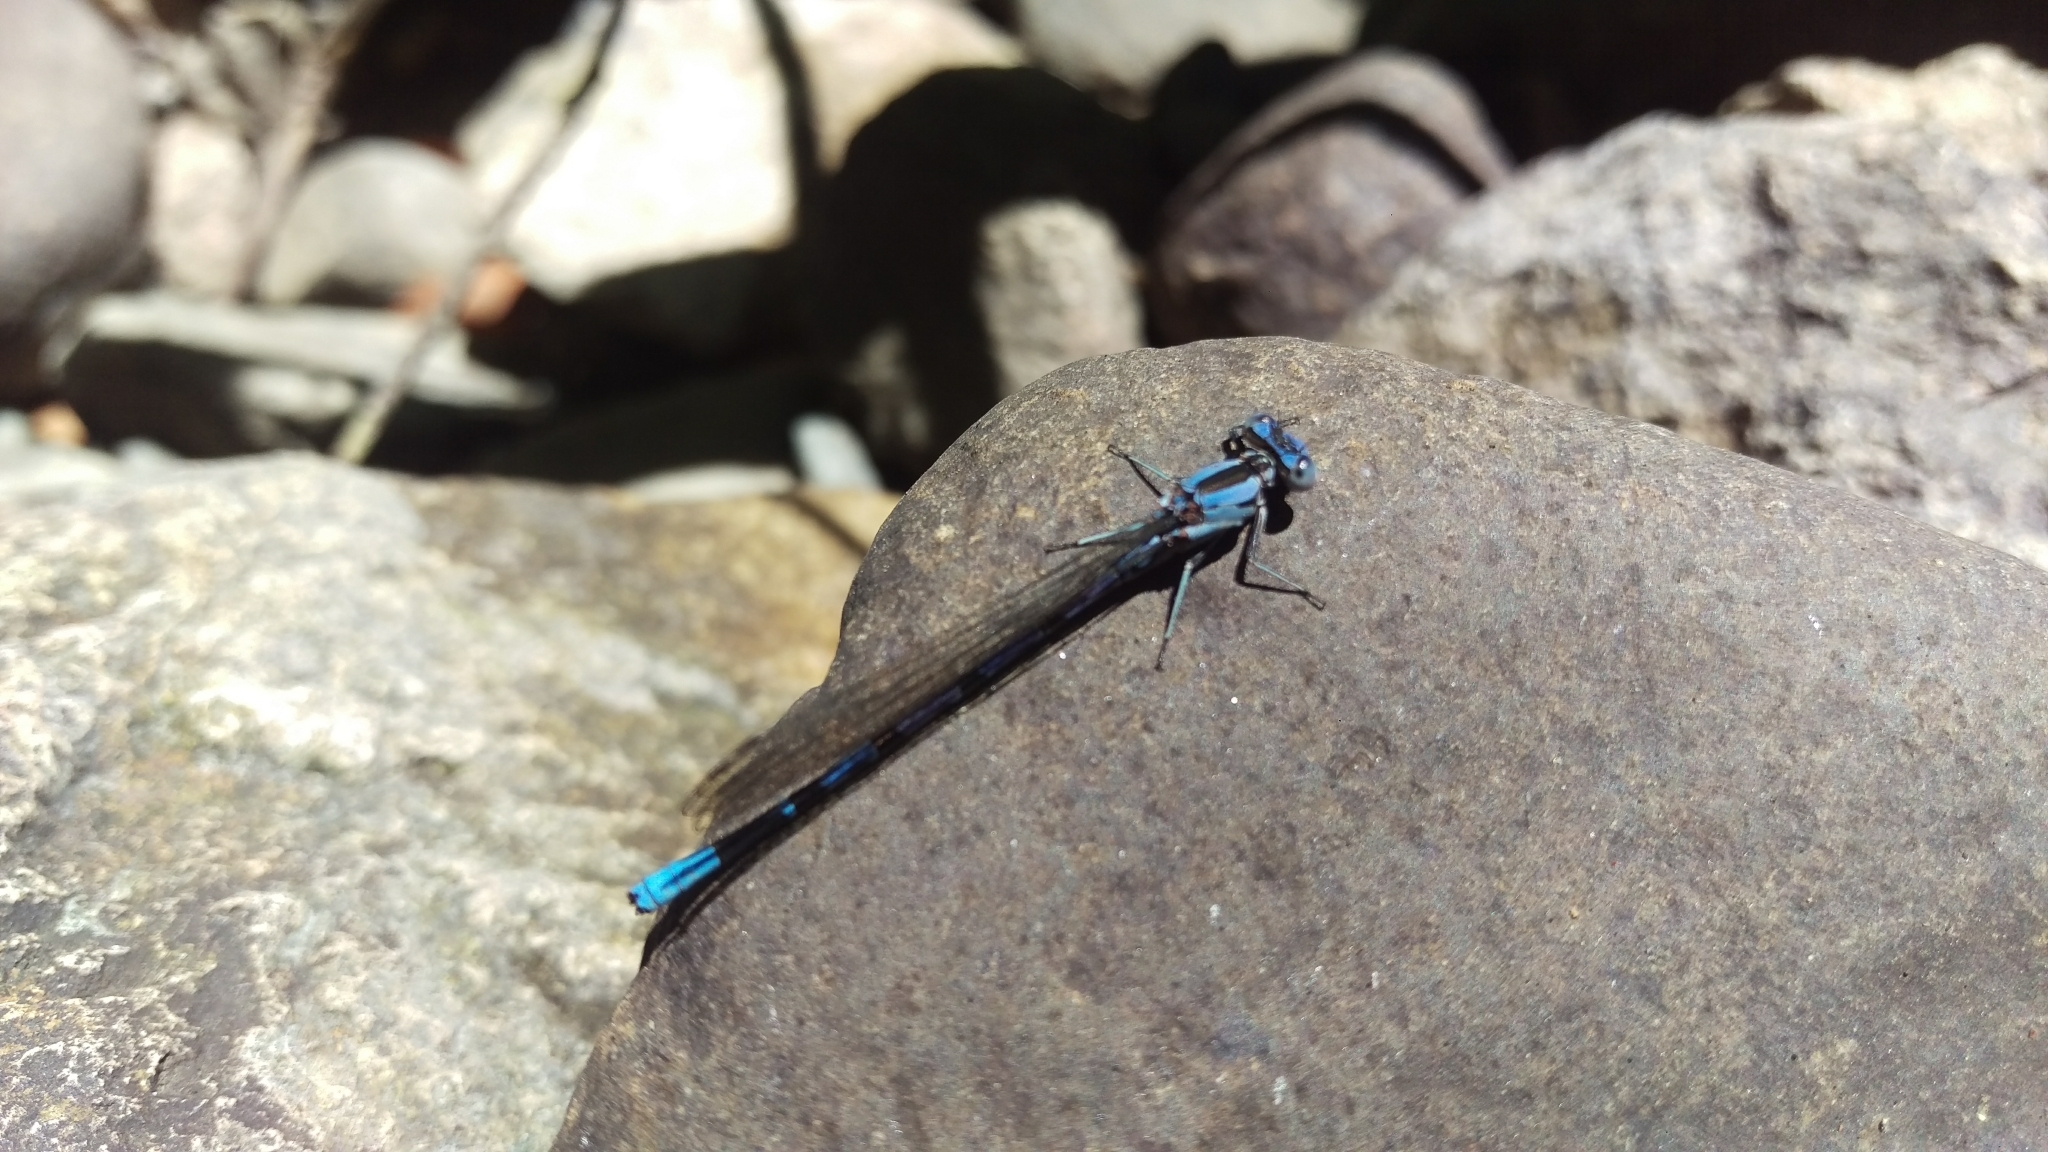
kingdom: Animalia
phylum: Arthropoda
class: Insecta
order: Odonata
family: Coenagrionidae
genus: Argia
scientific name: Argia vivida
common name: Vivid dancer
